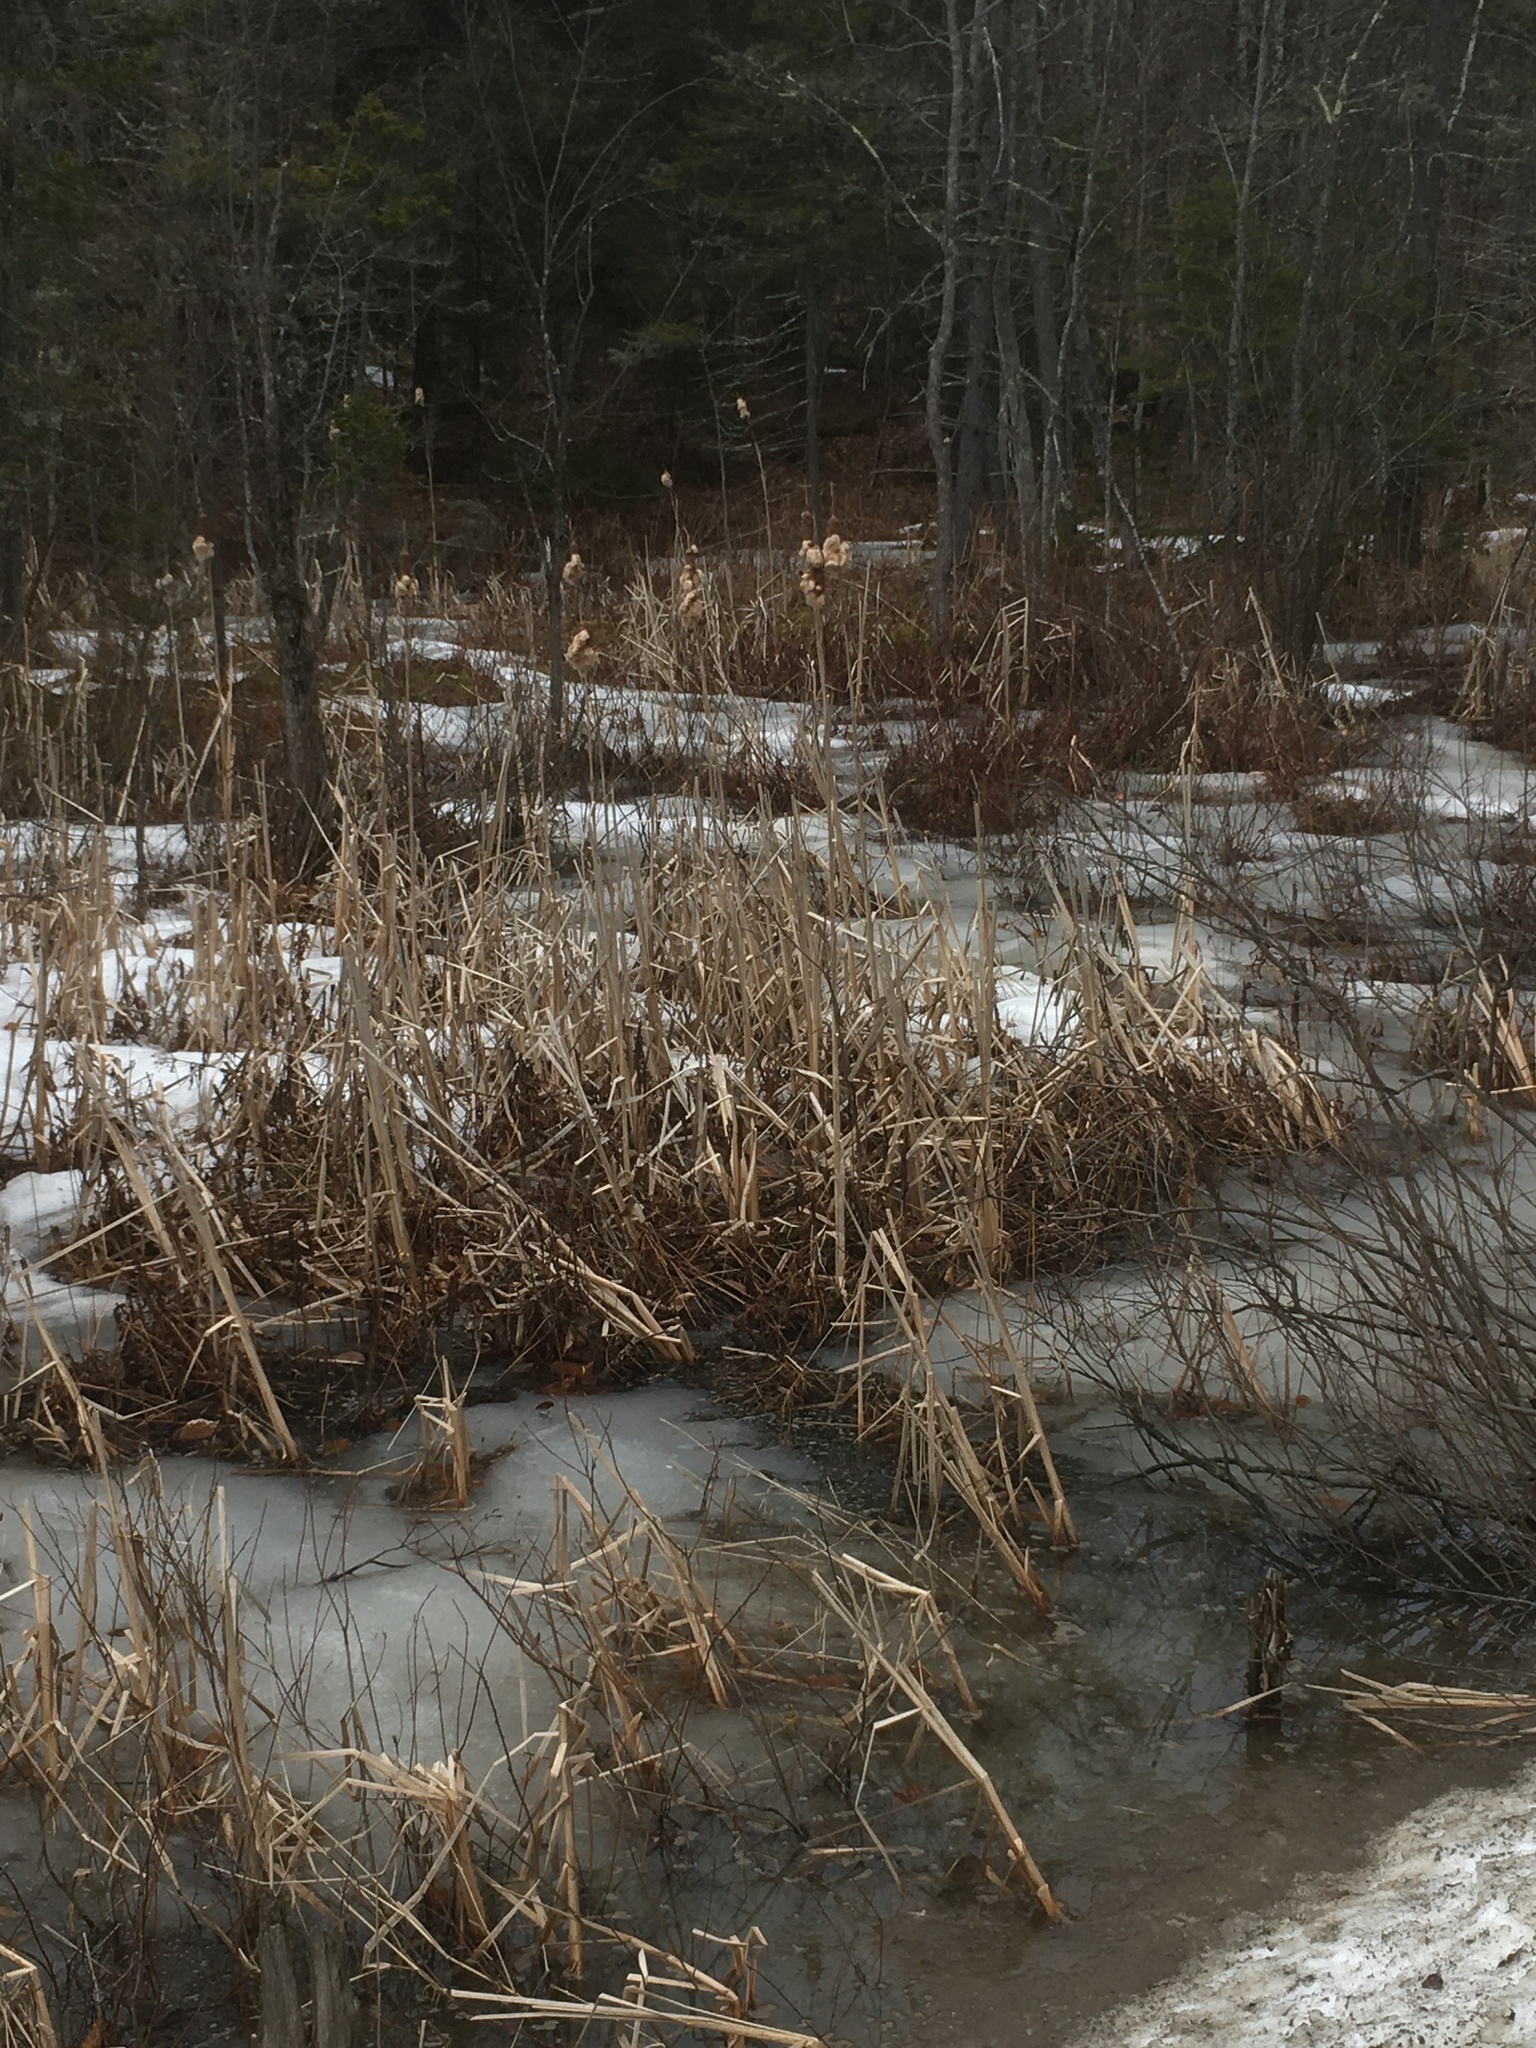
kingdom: Plantae
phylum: Tracheophyta
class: Liliopsida
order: Poales
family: Typhaceae
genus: Typha
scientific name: Typha latifolia
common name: Broadleaf cattail
